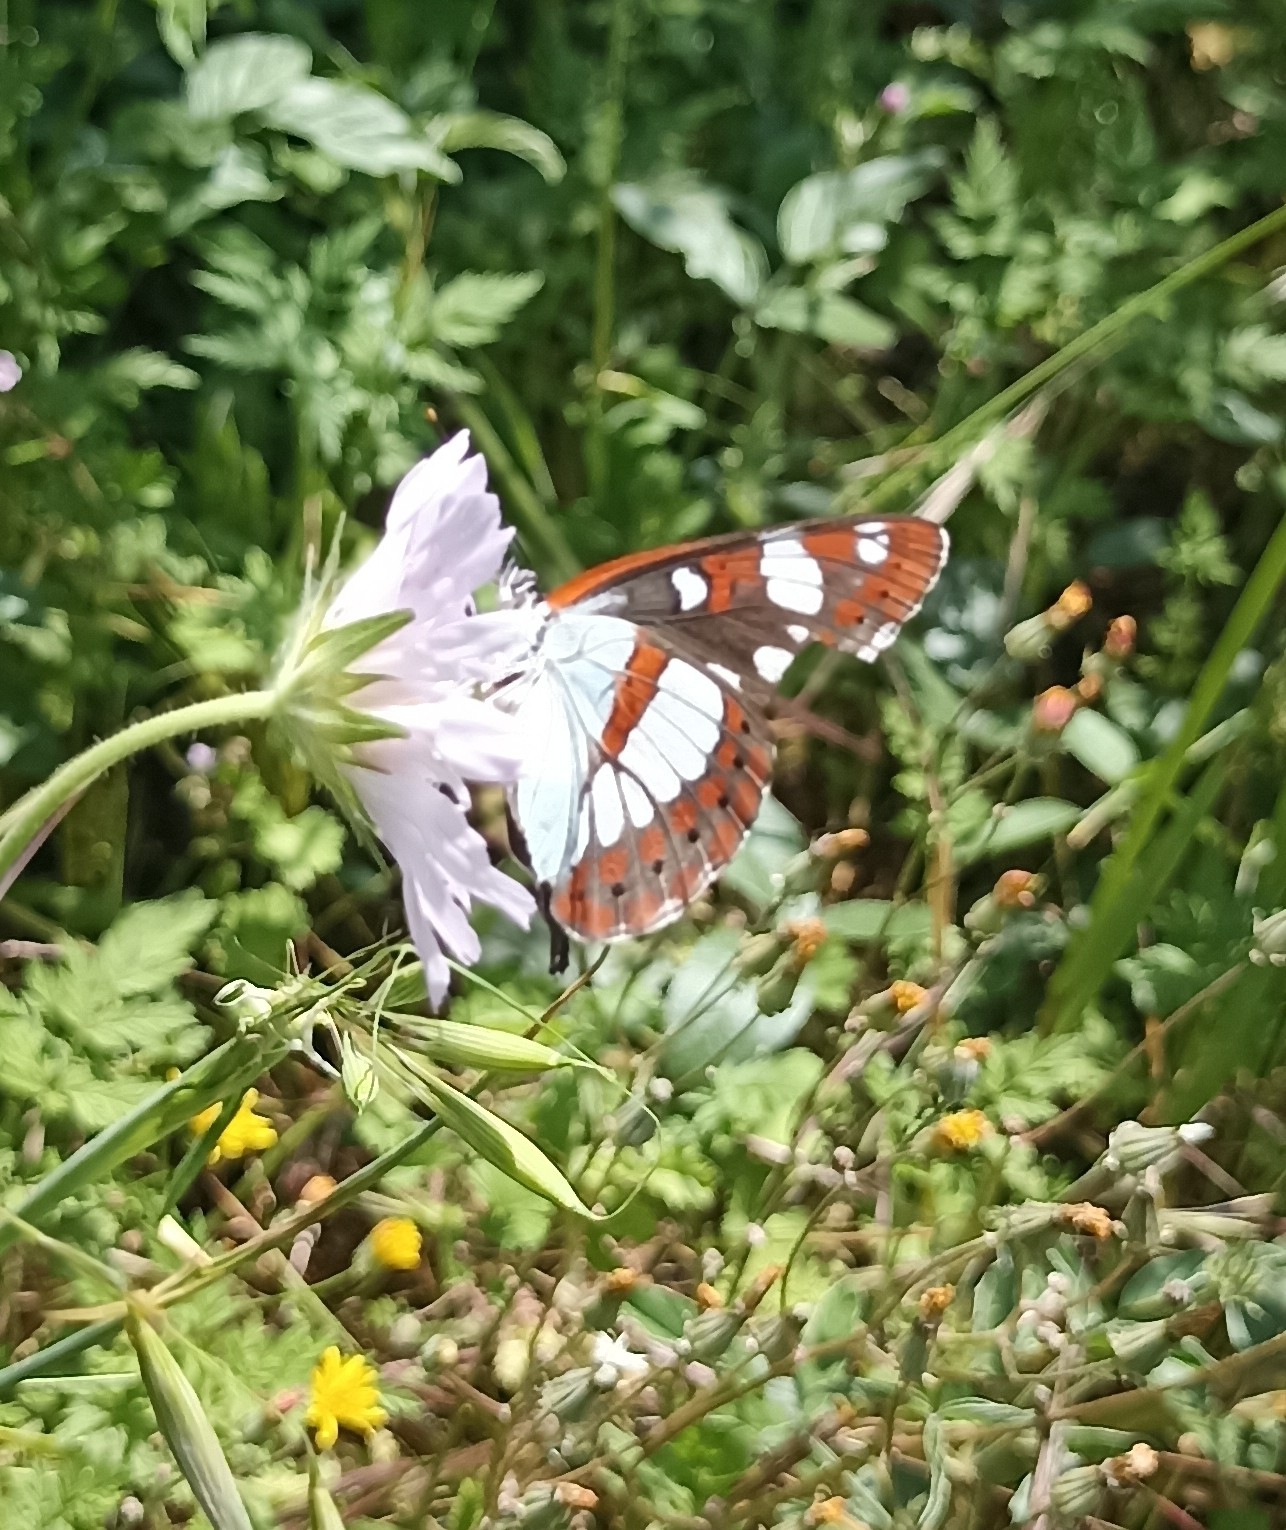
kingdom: Animalia
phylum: Arthropoda
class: Insecta
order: Lepidoptera
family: Nymphalidae
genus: Limenitis
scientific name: Limenitis reducta
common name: Southern white admiral
